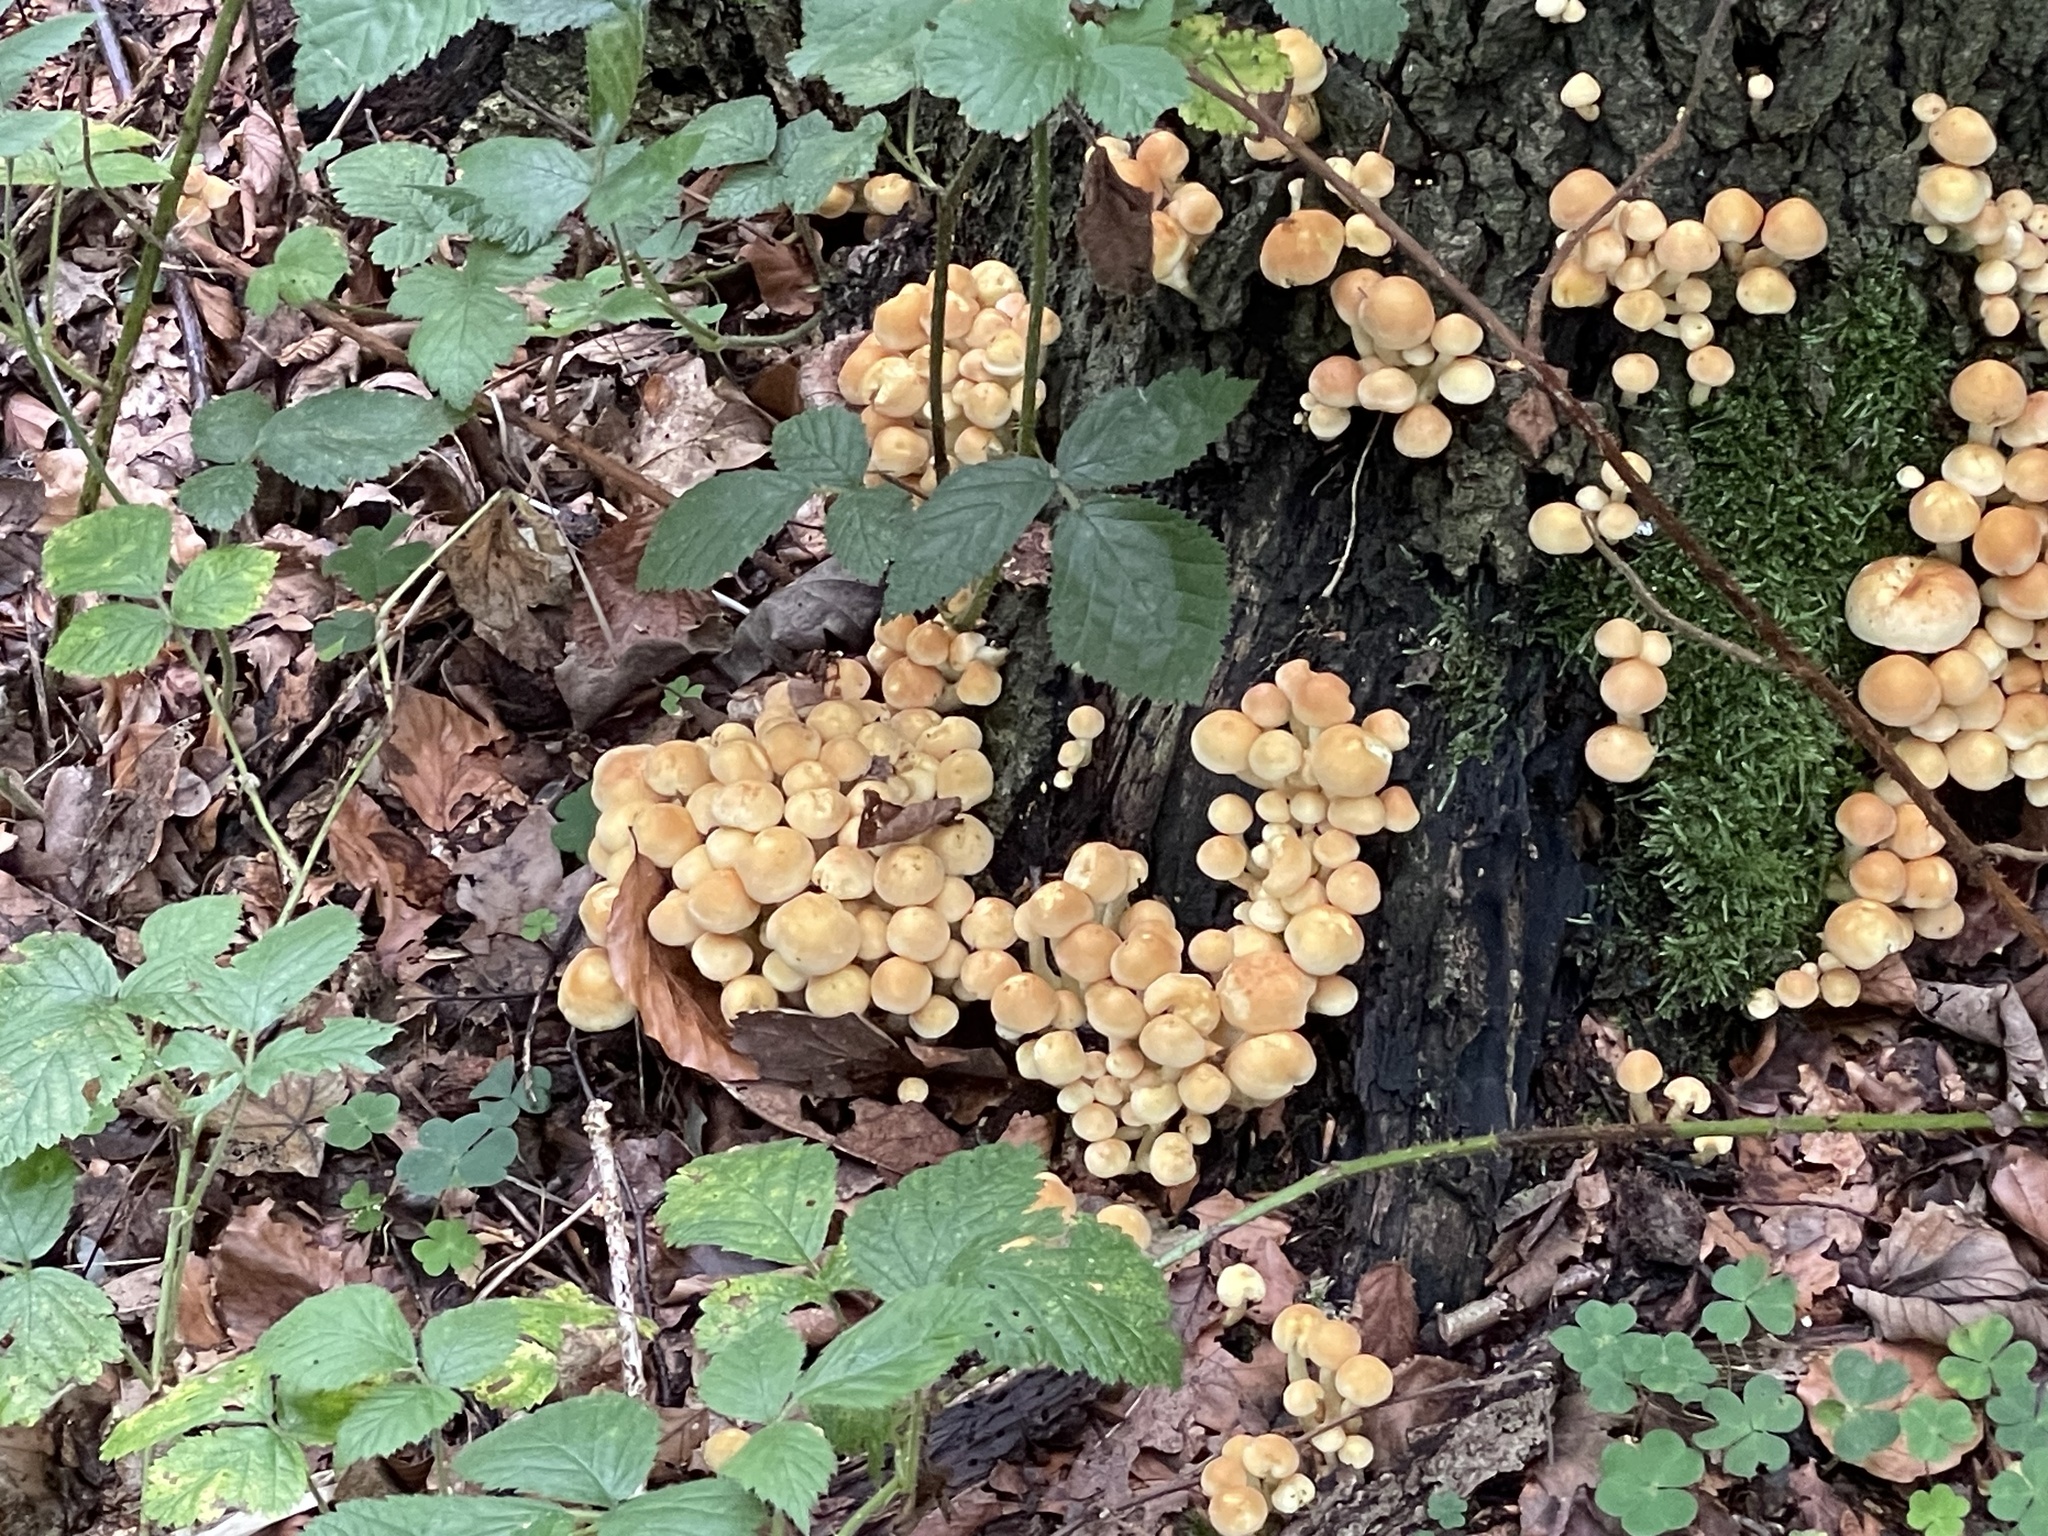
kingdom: Fungi
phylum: Basidiomycota
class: Agaricomycetes
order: Agaricales
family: Strophariaceae
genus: Hypholoma
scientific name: Hypholoma fasciculare
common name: Sulphur tuft
